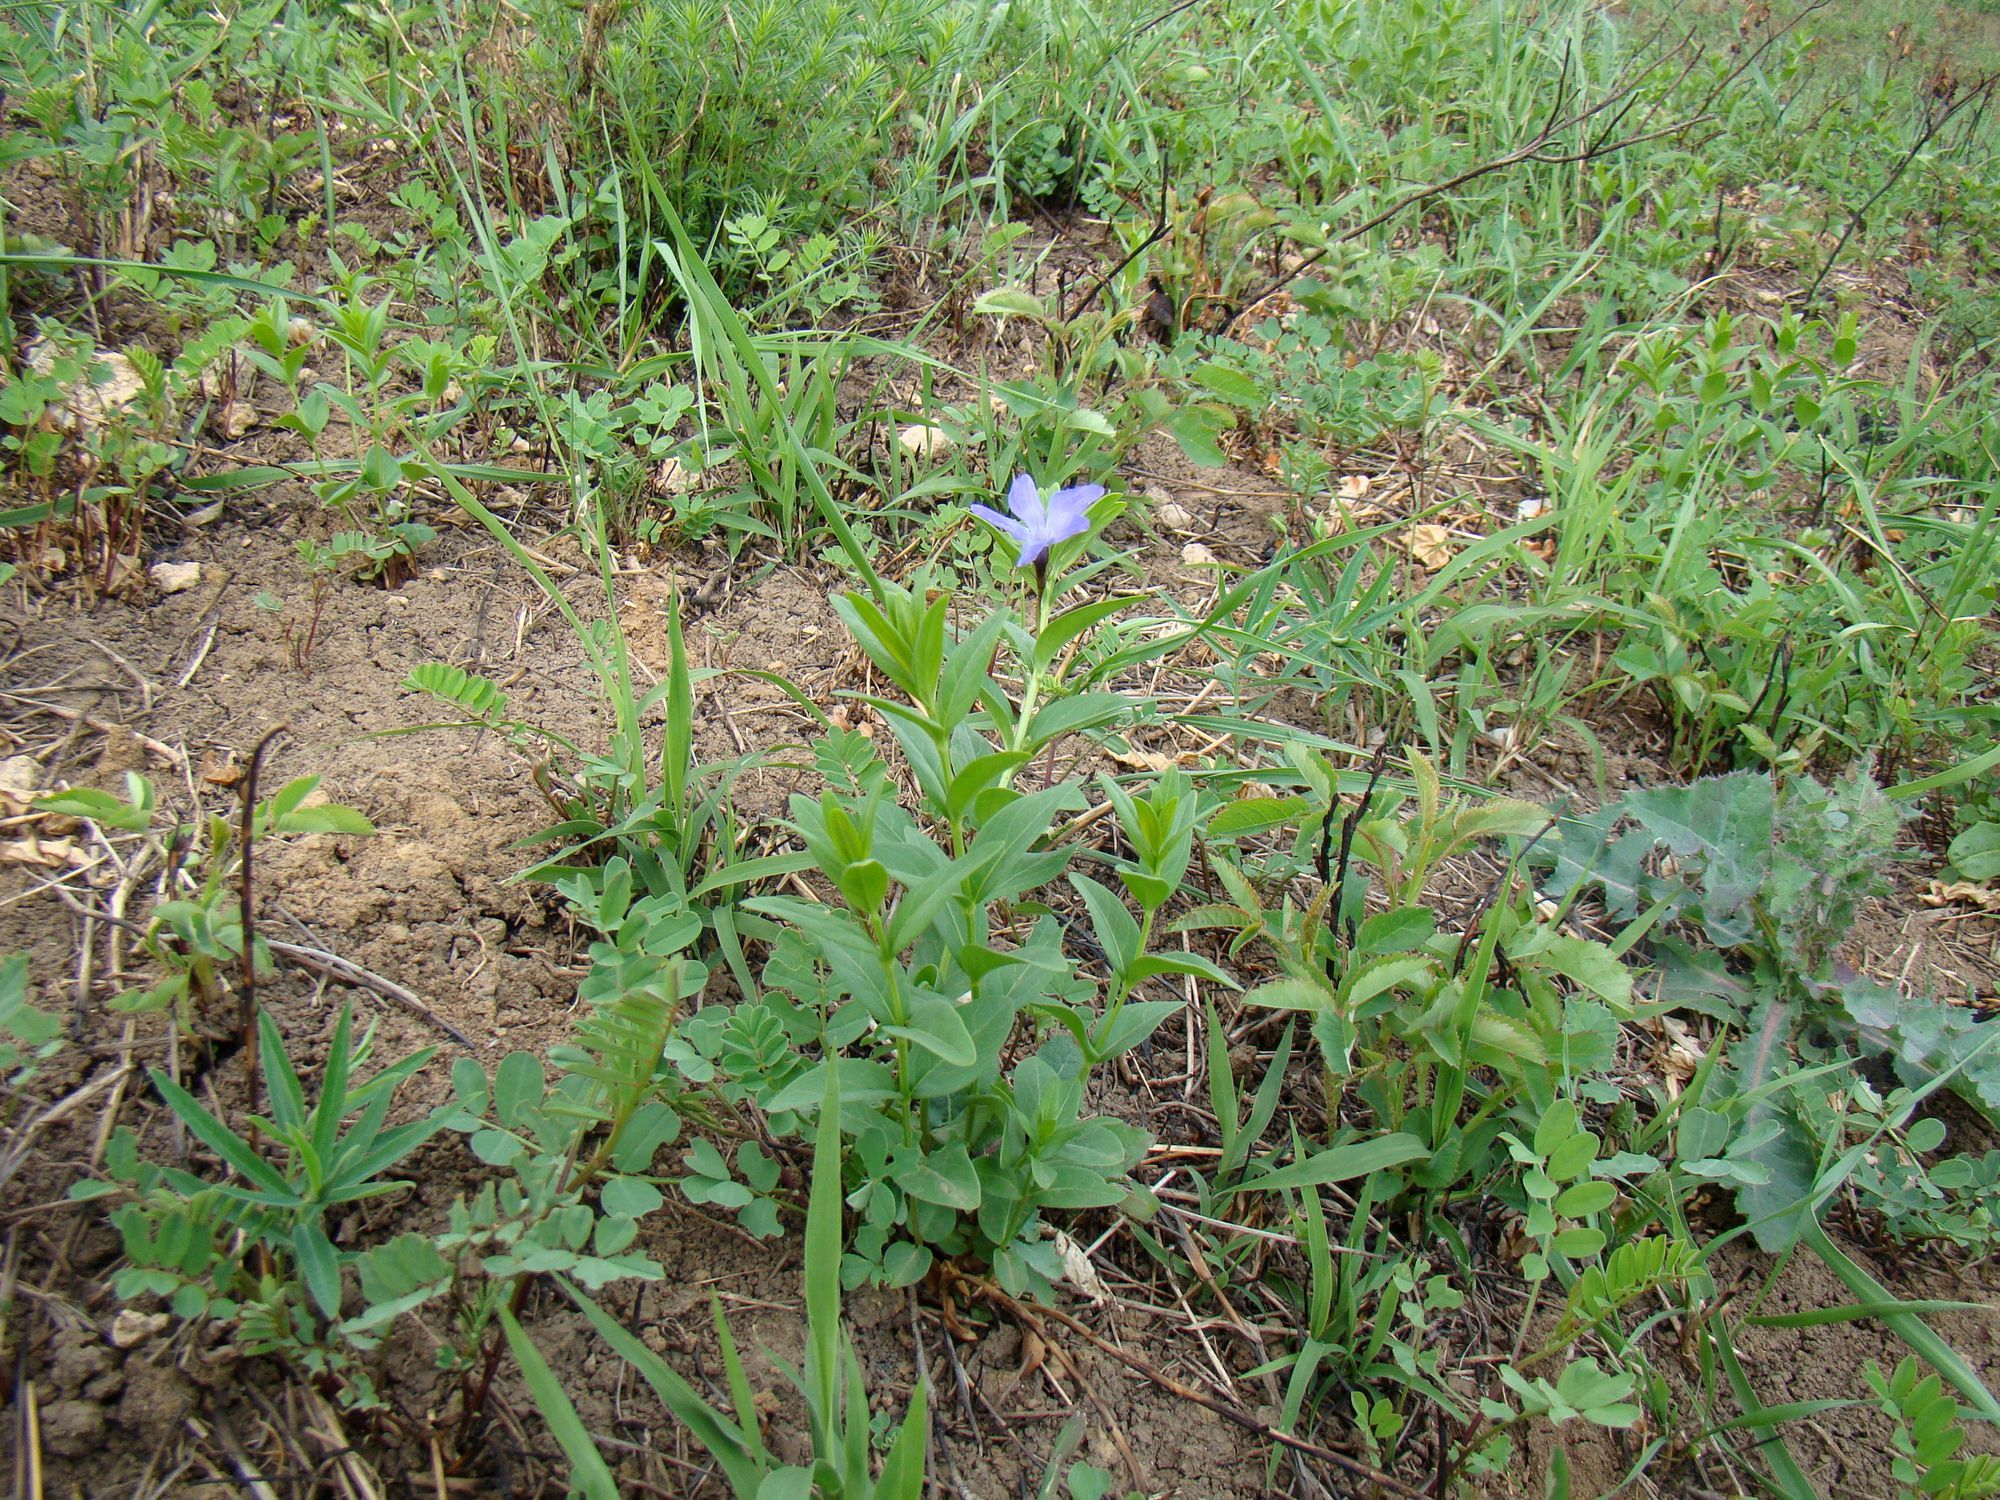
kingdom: Plantae
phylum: Tracheophyta
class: Magnoliopsida
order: Gentianales
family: Apocynaceae
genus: Vinca
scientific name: Vinca herbacea
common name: Herbaceous periwinkle
